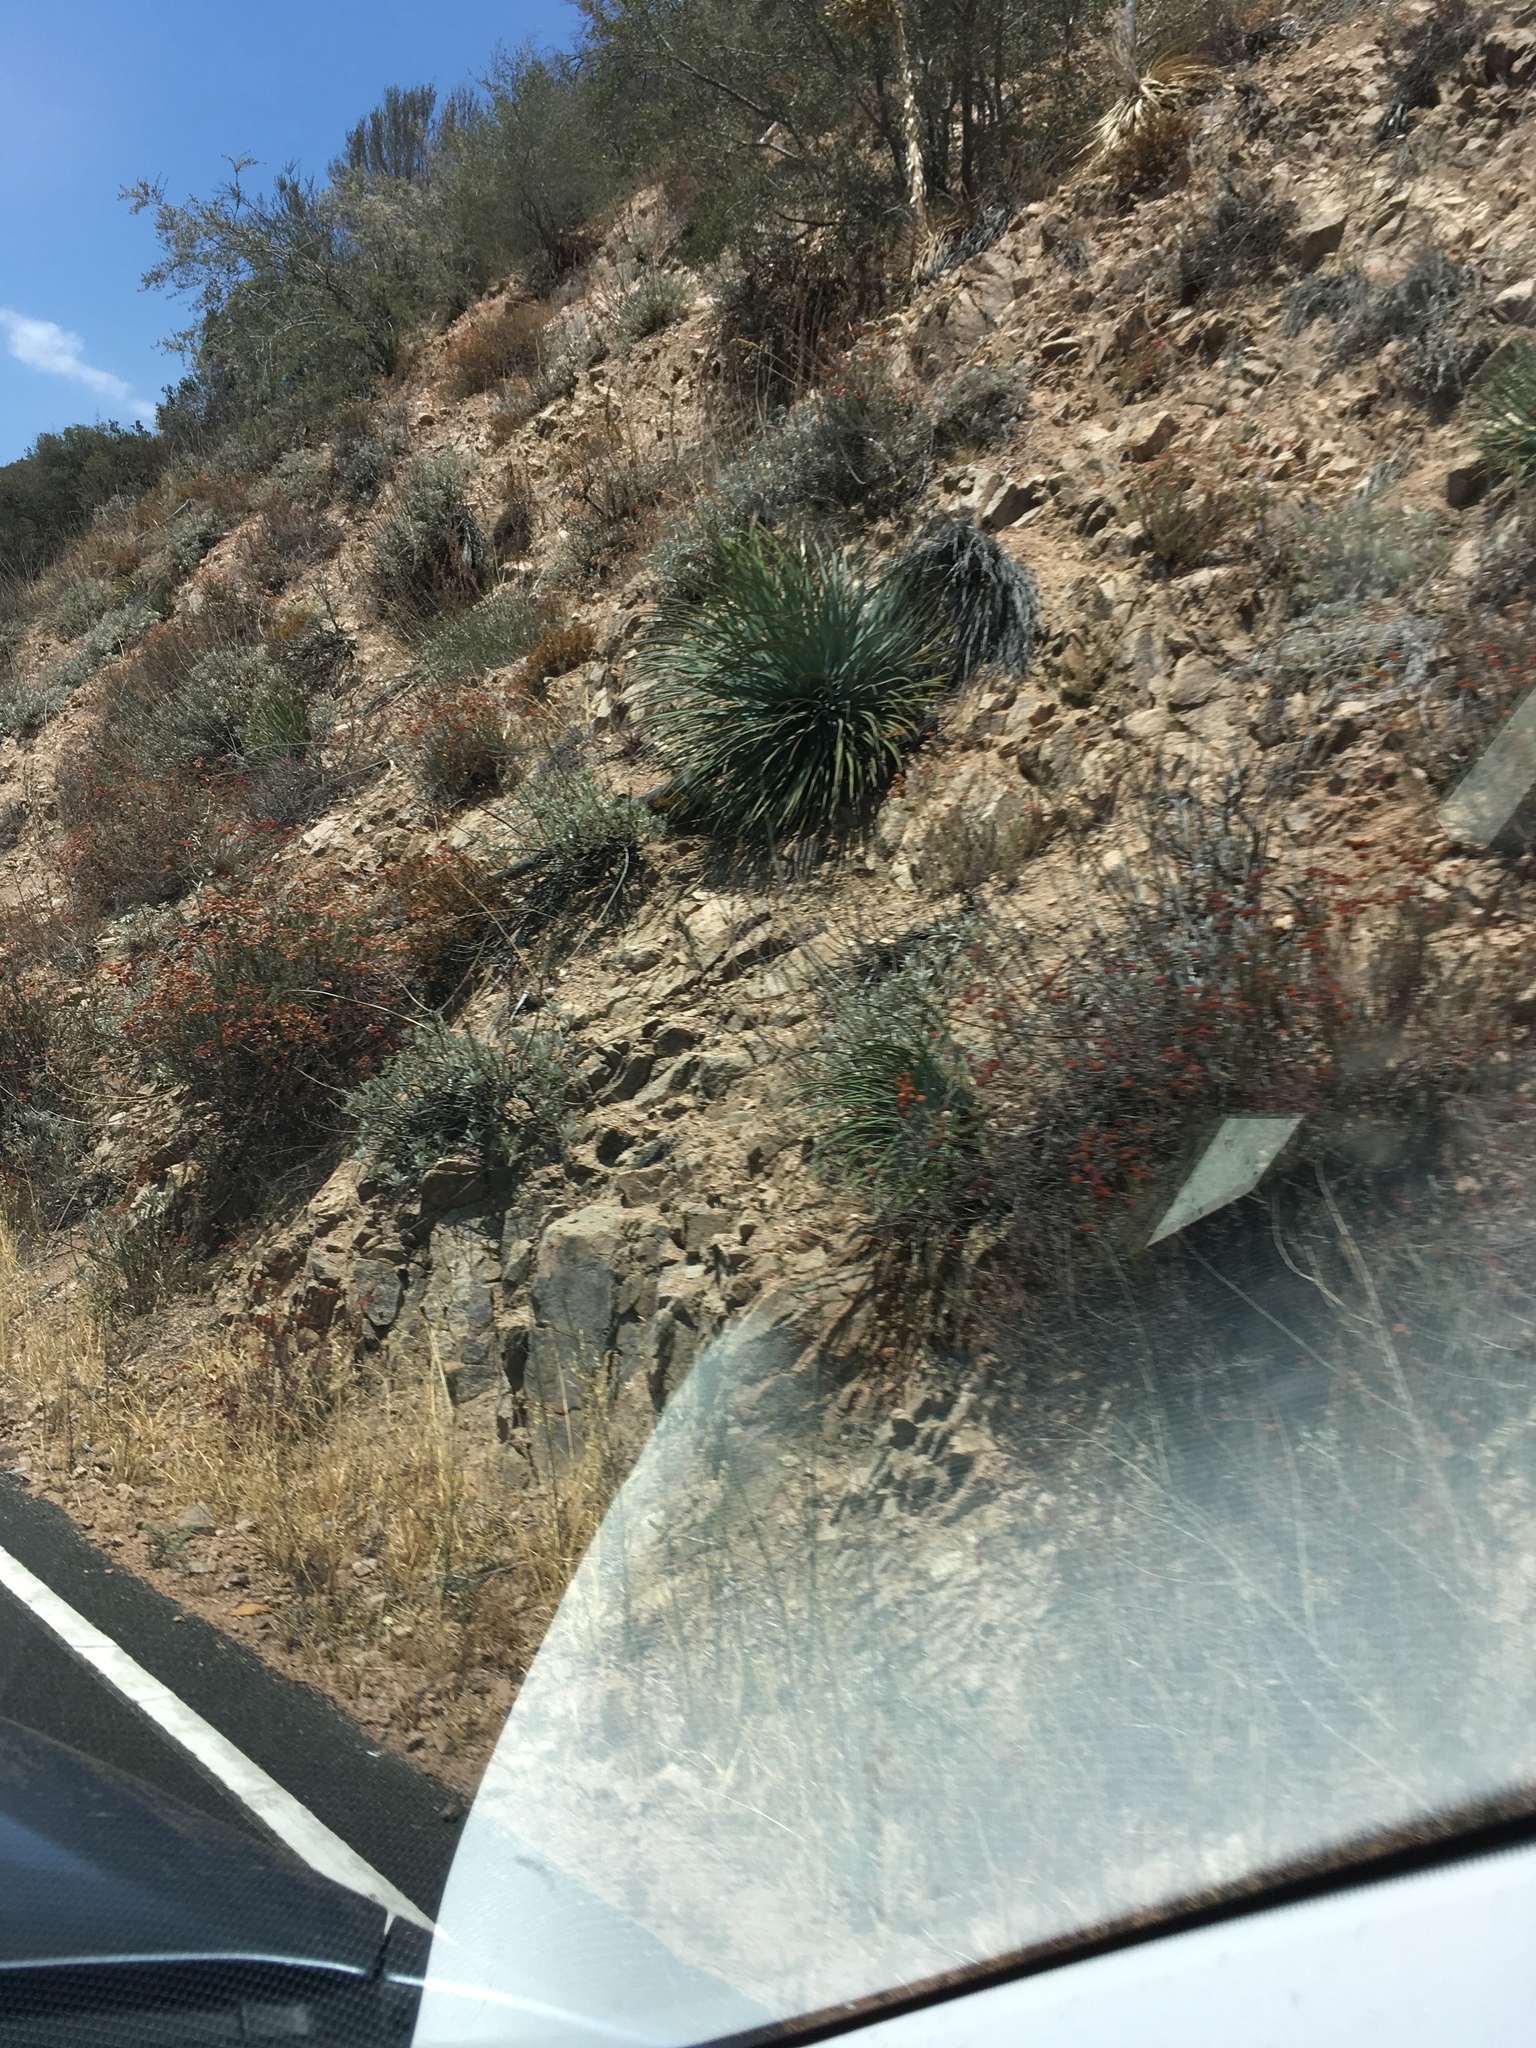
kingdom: Plantae
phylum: Tracheophyta
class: Magnoliopsida
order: Lamiales
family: Lamiaceae
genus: Salvia
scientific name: Salvia apiana
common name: White sage
